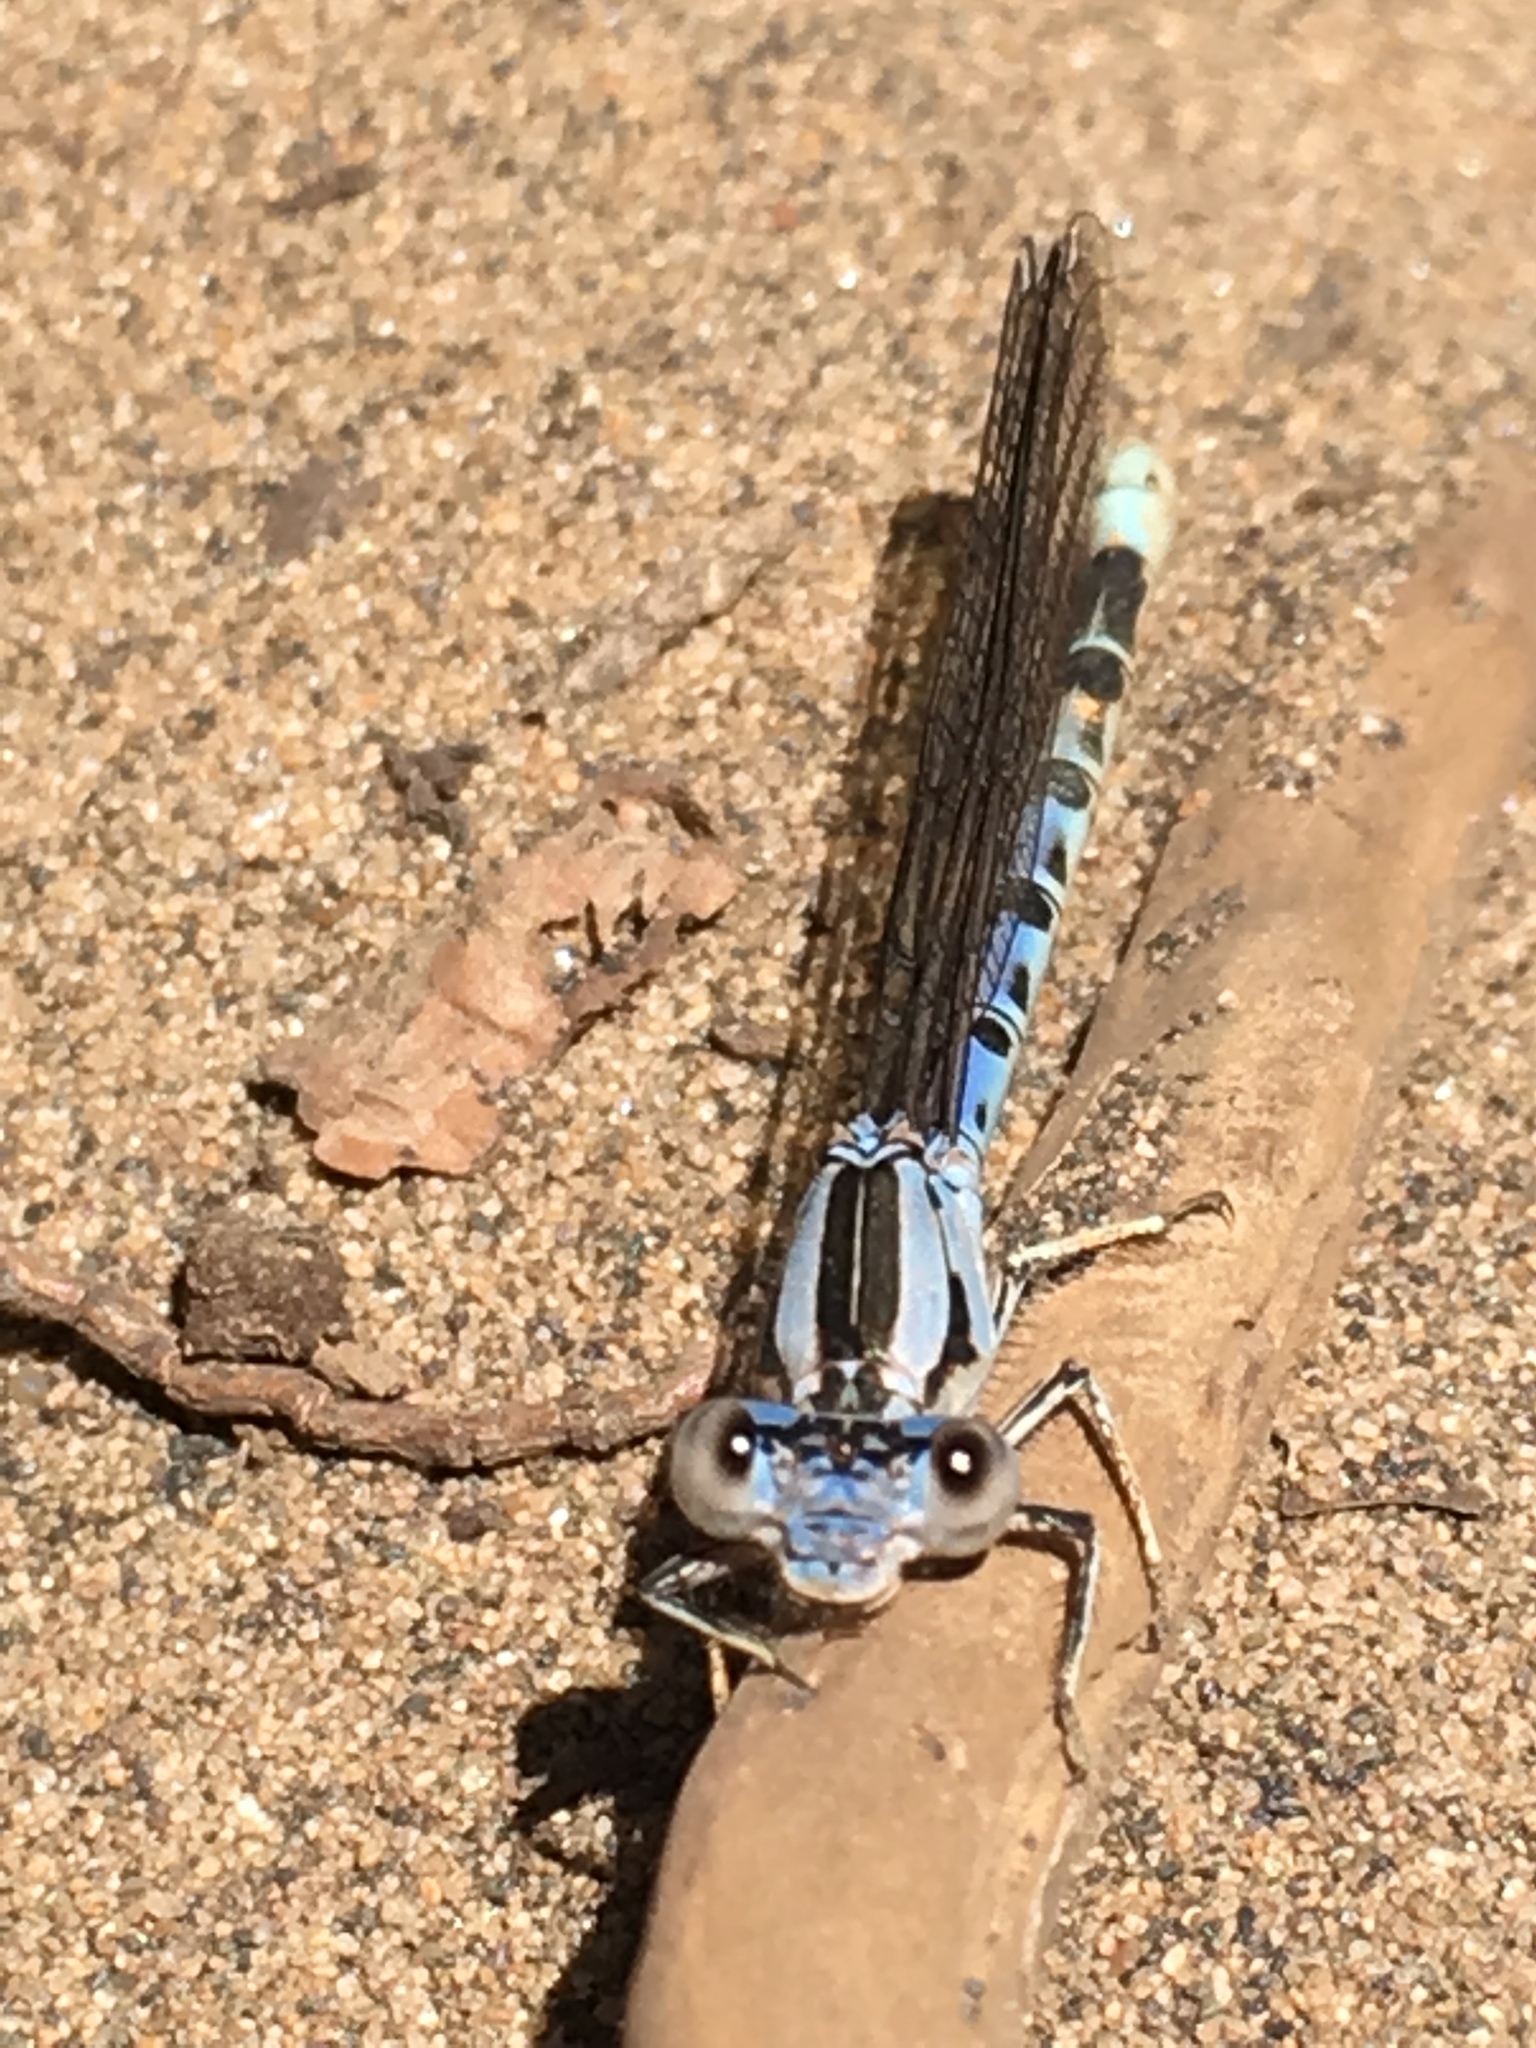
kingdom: Animalia
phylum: Arthropoda
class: Insecta
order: Odonata
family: Coenagrionidae
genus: Argia
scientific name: Argia vivida
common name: Vivid dancer
